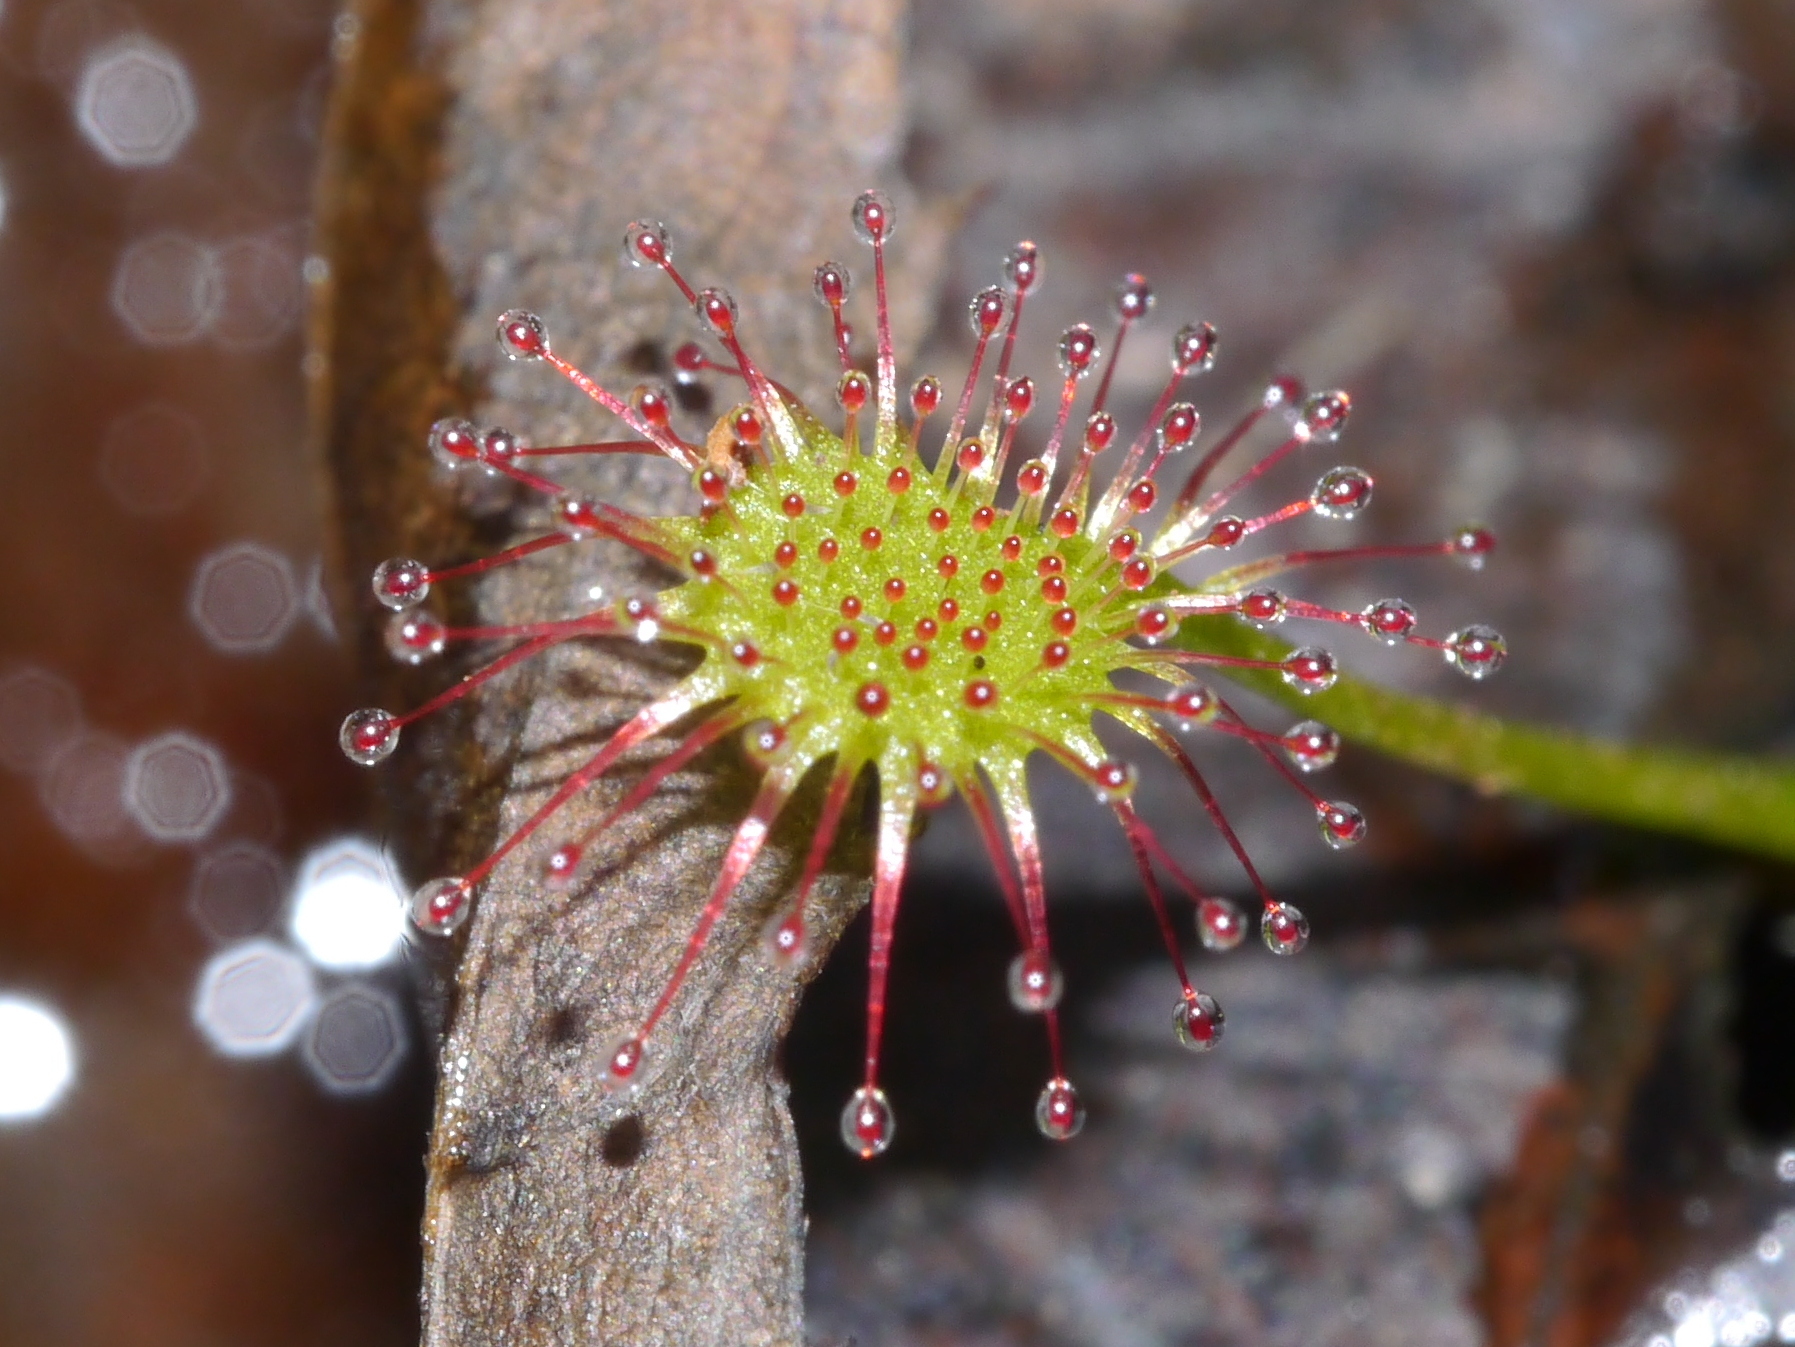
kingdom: Plantae
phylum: Tracheophyta
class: Magnoliopsida
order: Caryophyllales
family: Droseraceae
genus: Drosera
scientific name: Drosera intermedia
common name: Oblong-leaved sundew
